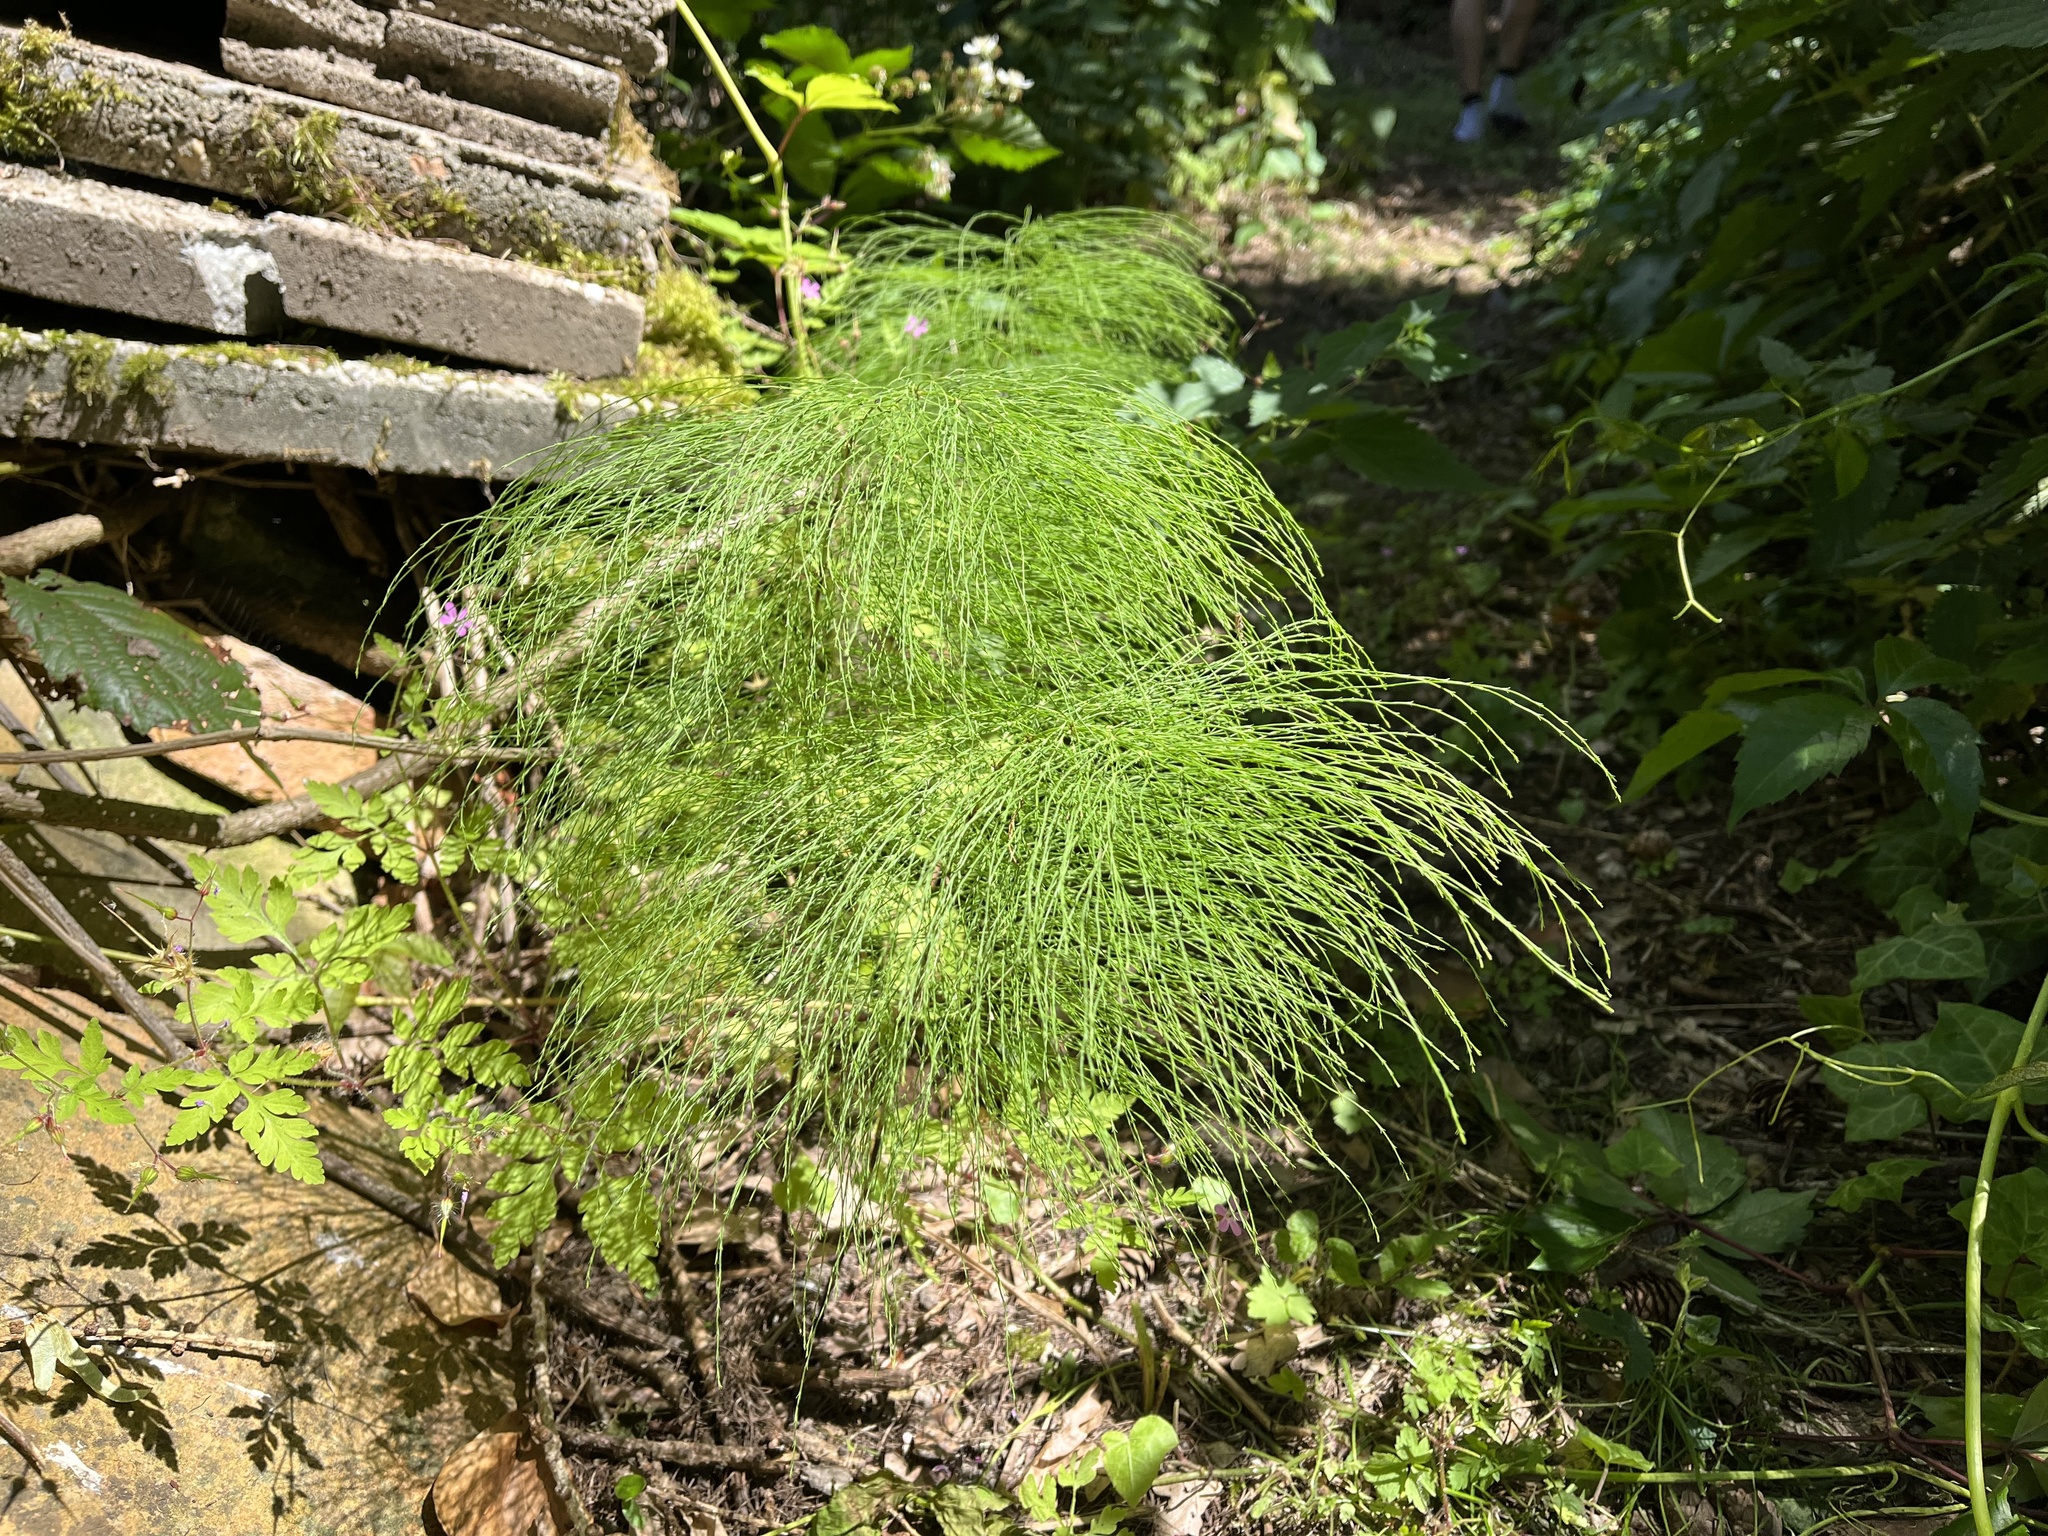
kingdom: Plantae
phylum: Tracheophyta
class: Polypodiopsida
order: Equisetales
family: Equisetaceae
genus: Equisetum
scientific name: Equisetum sylvaticum
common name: Wood horsetail
